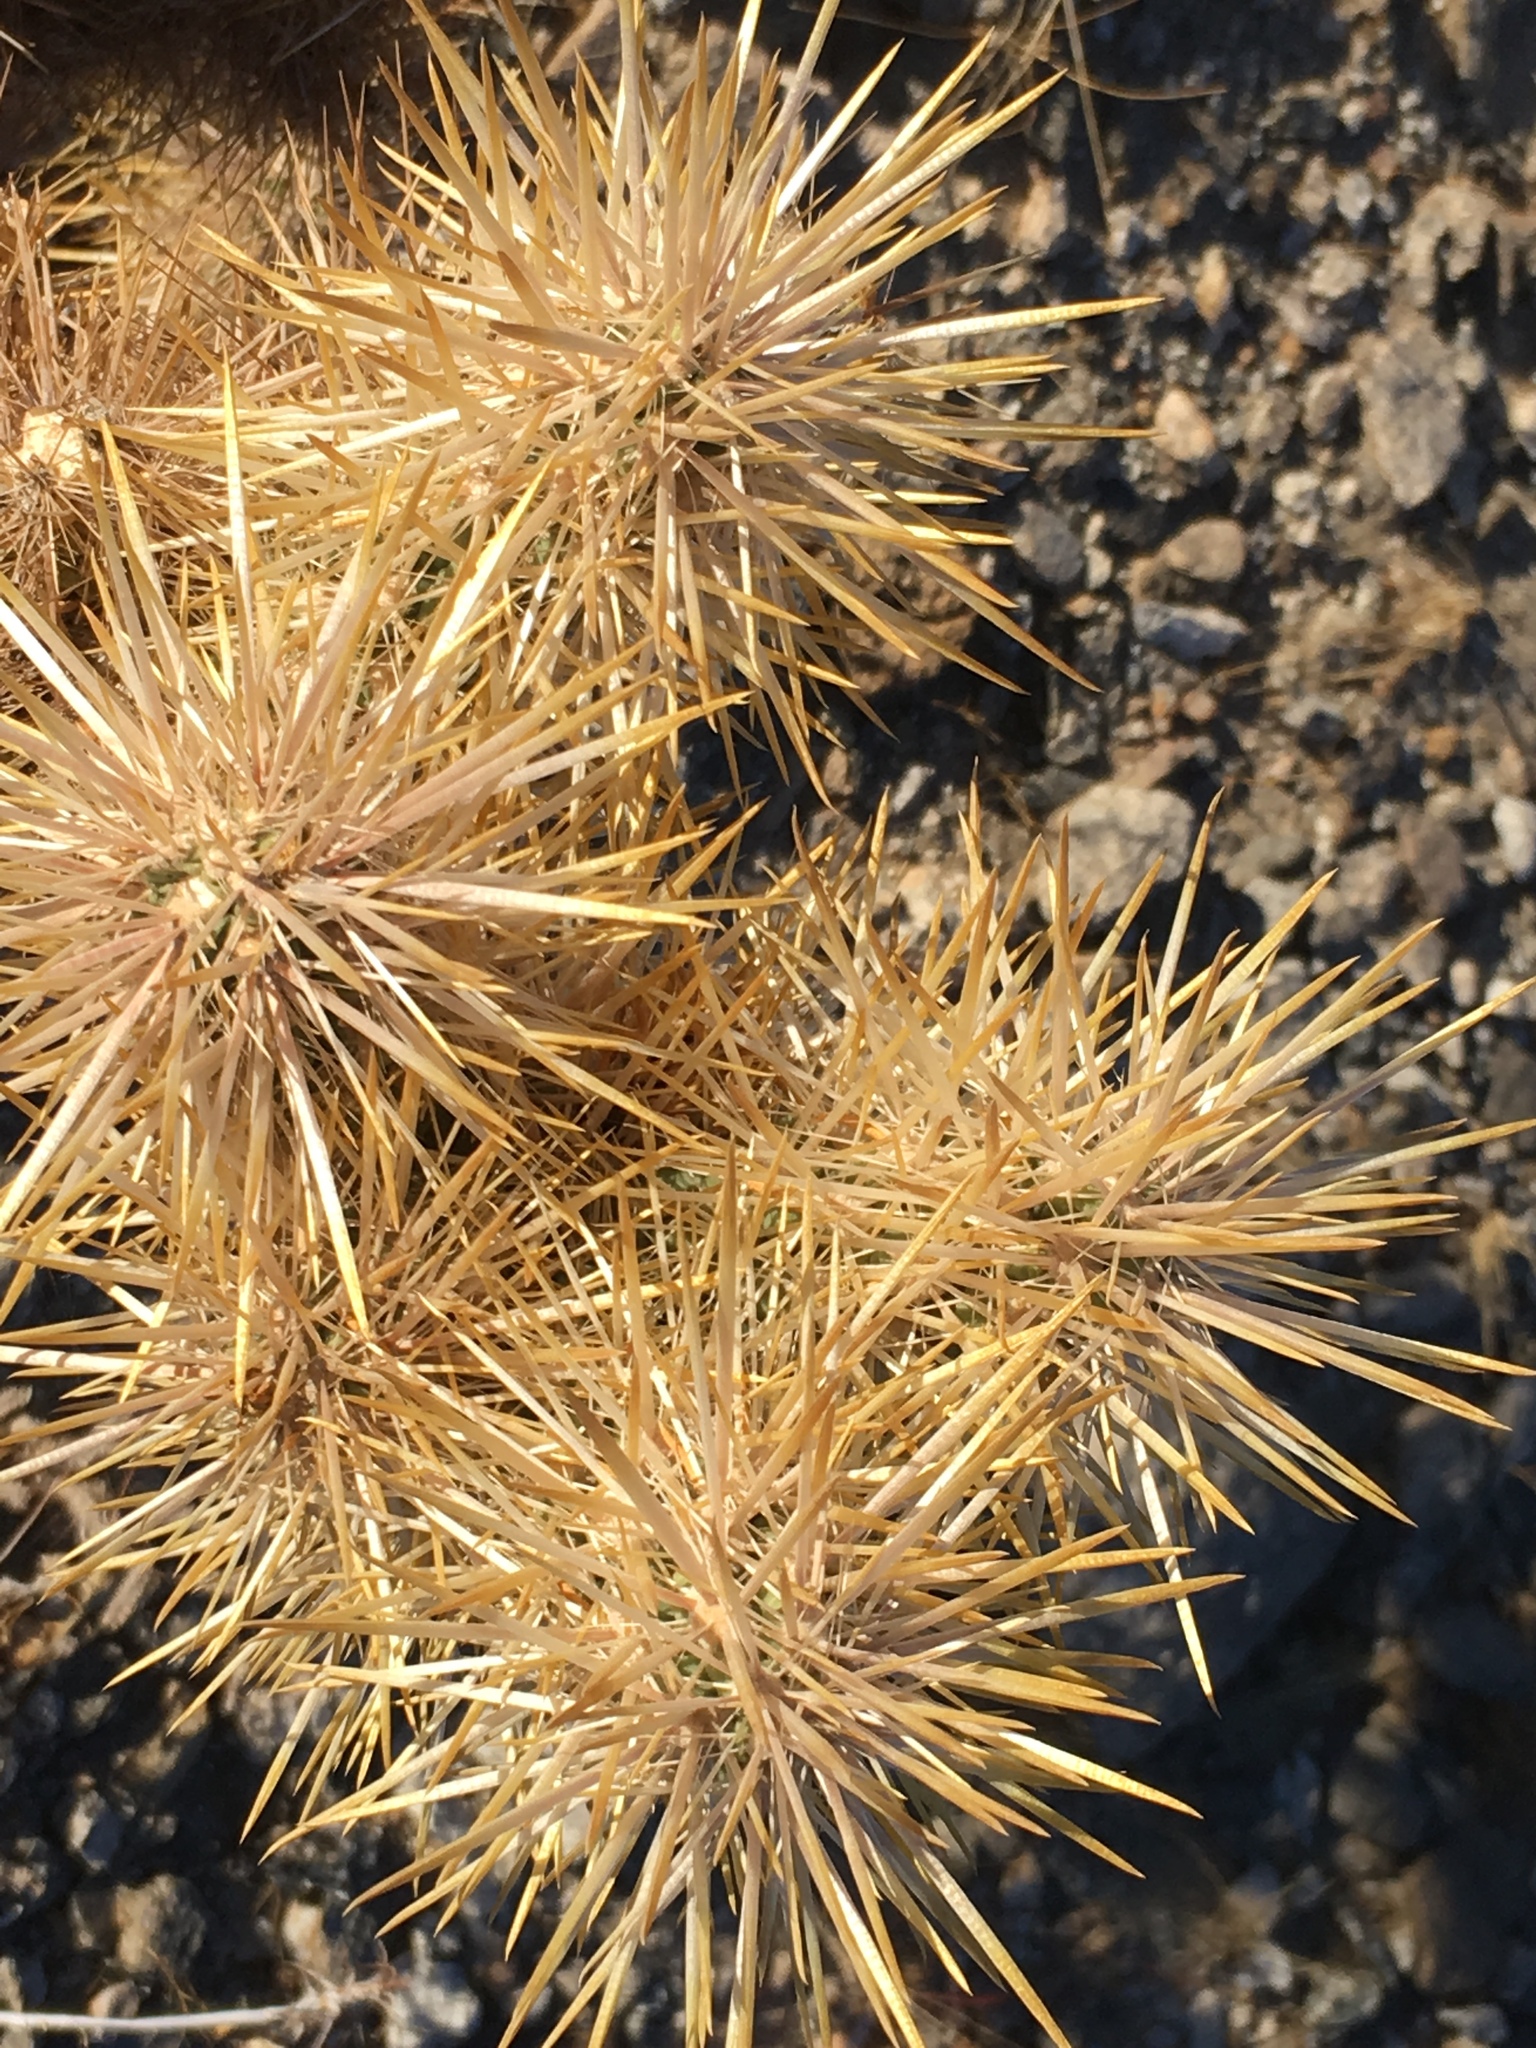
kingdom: Plantae
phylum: Tracheophyta
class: Magnoliopsida
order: Caryophyllales
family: Cactaceae
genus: Cylindropuntia
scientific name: Cylindropuntia echinocarpa
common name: Ground cholla
